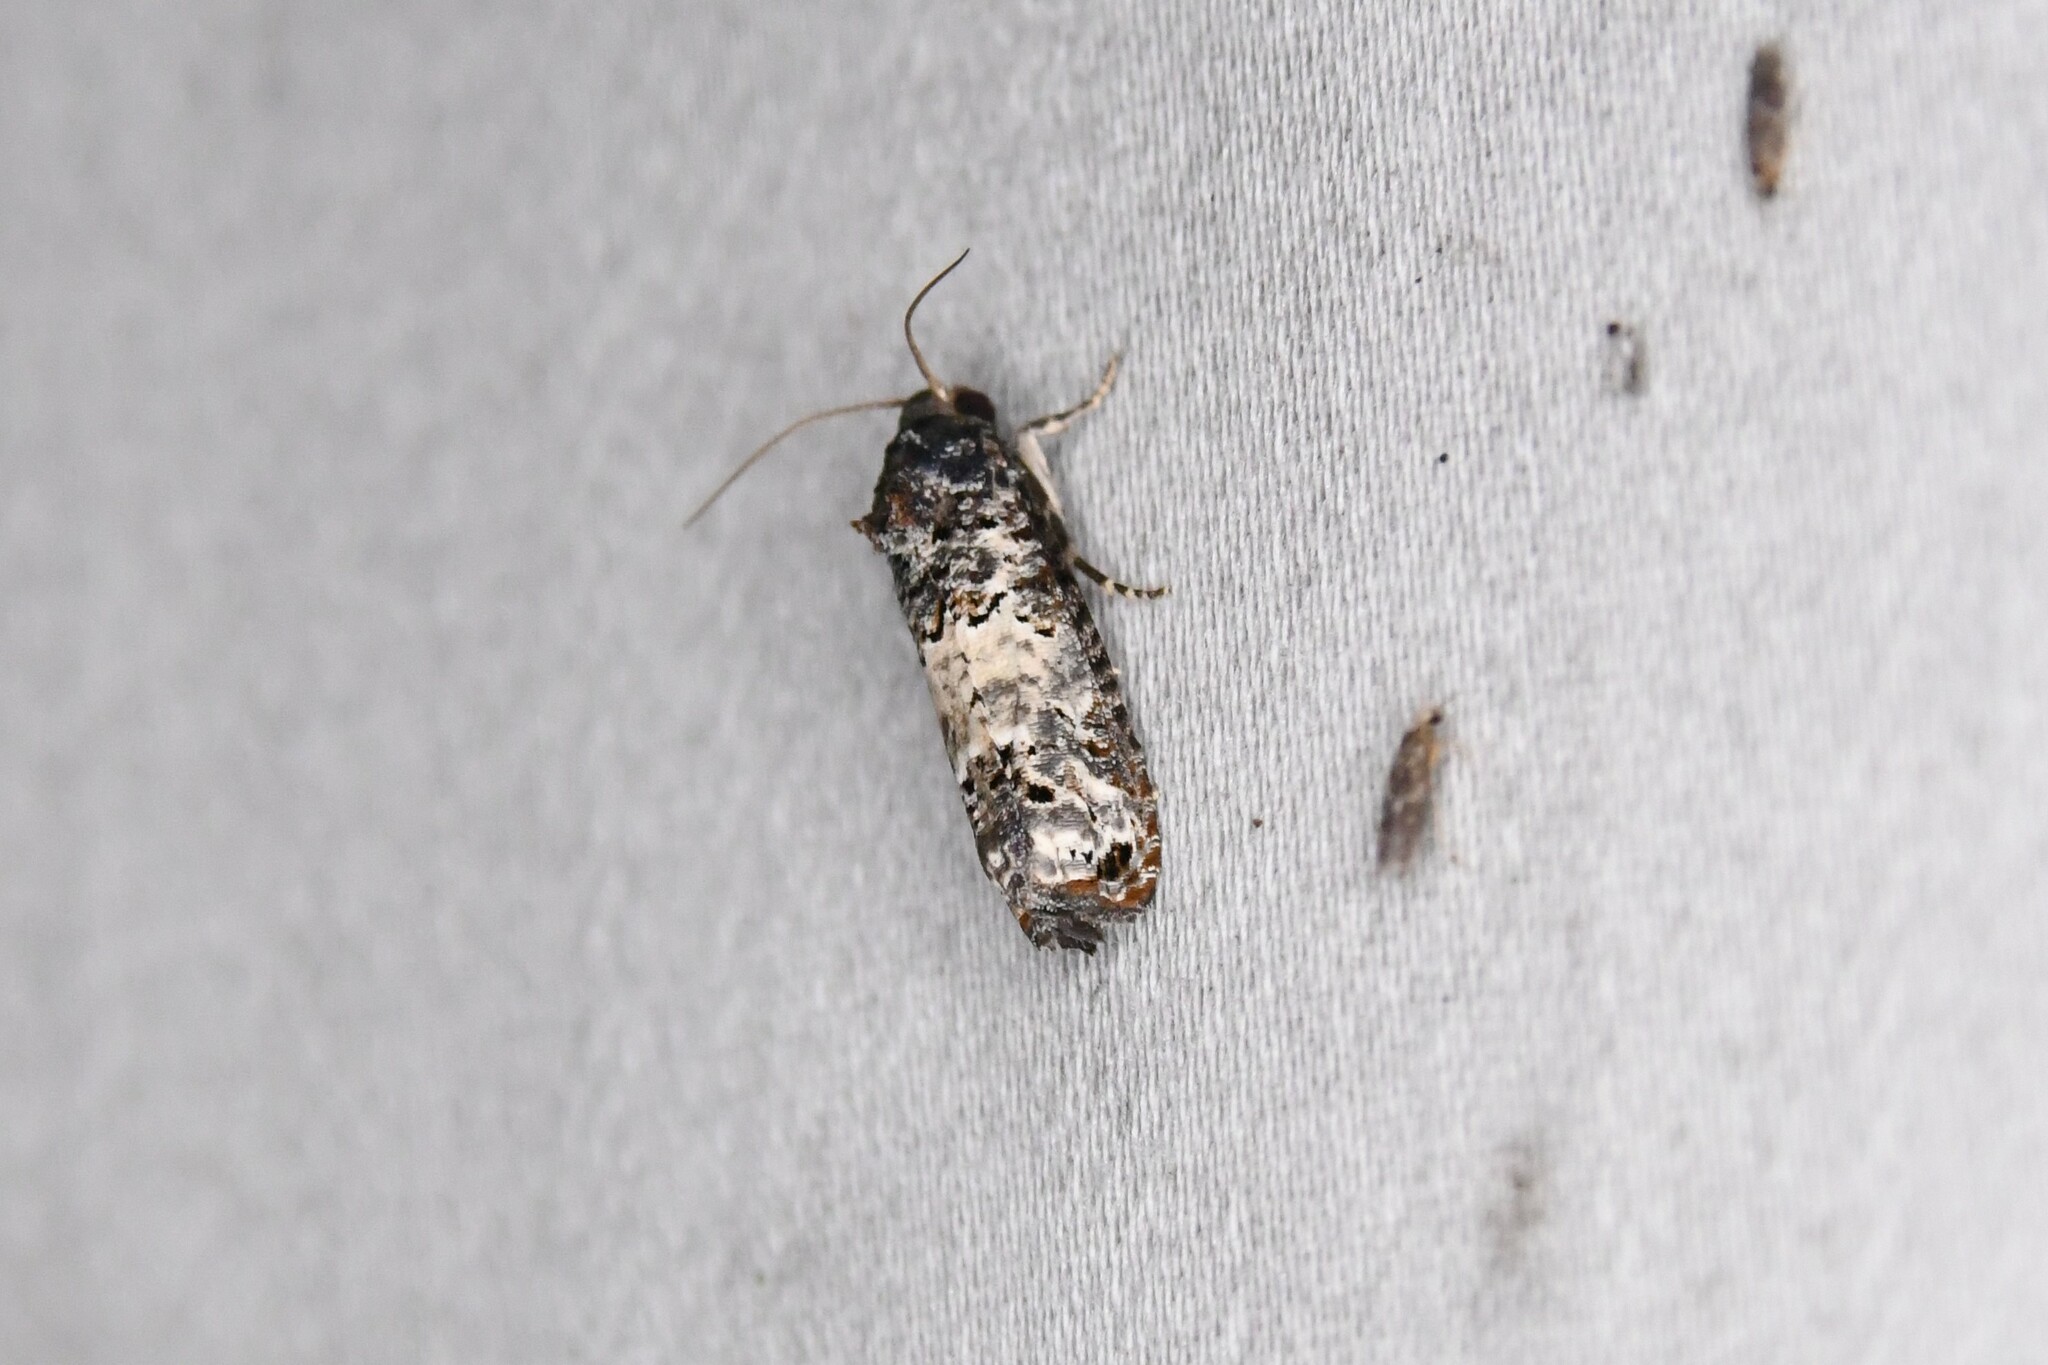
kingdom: Animalia
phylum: Arthropoda
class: Insecta
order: Lepidoptera
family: Tortricidae
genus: Epiblema
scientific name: Epiblema carolinana
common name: Gray-blotched epiblema moth
